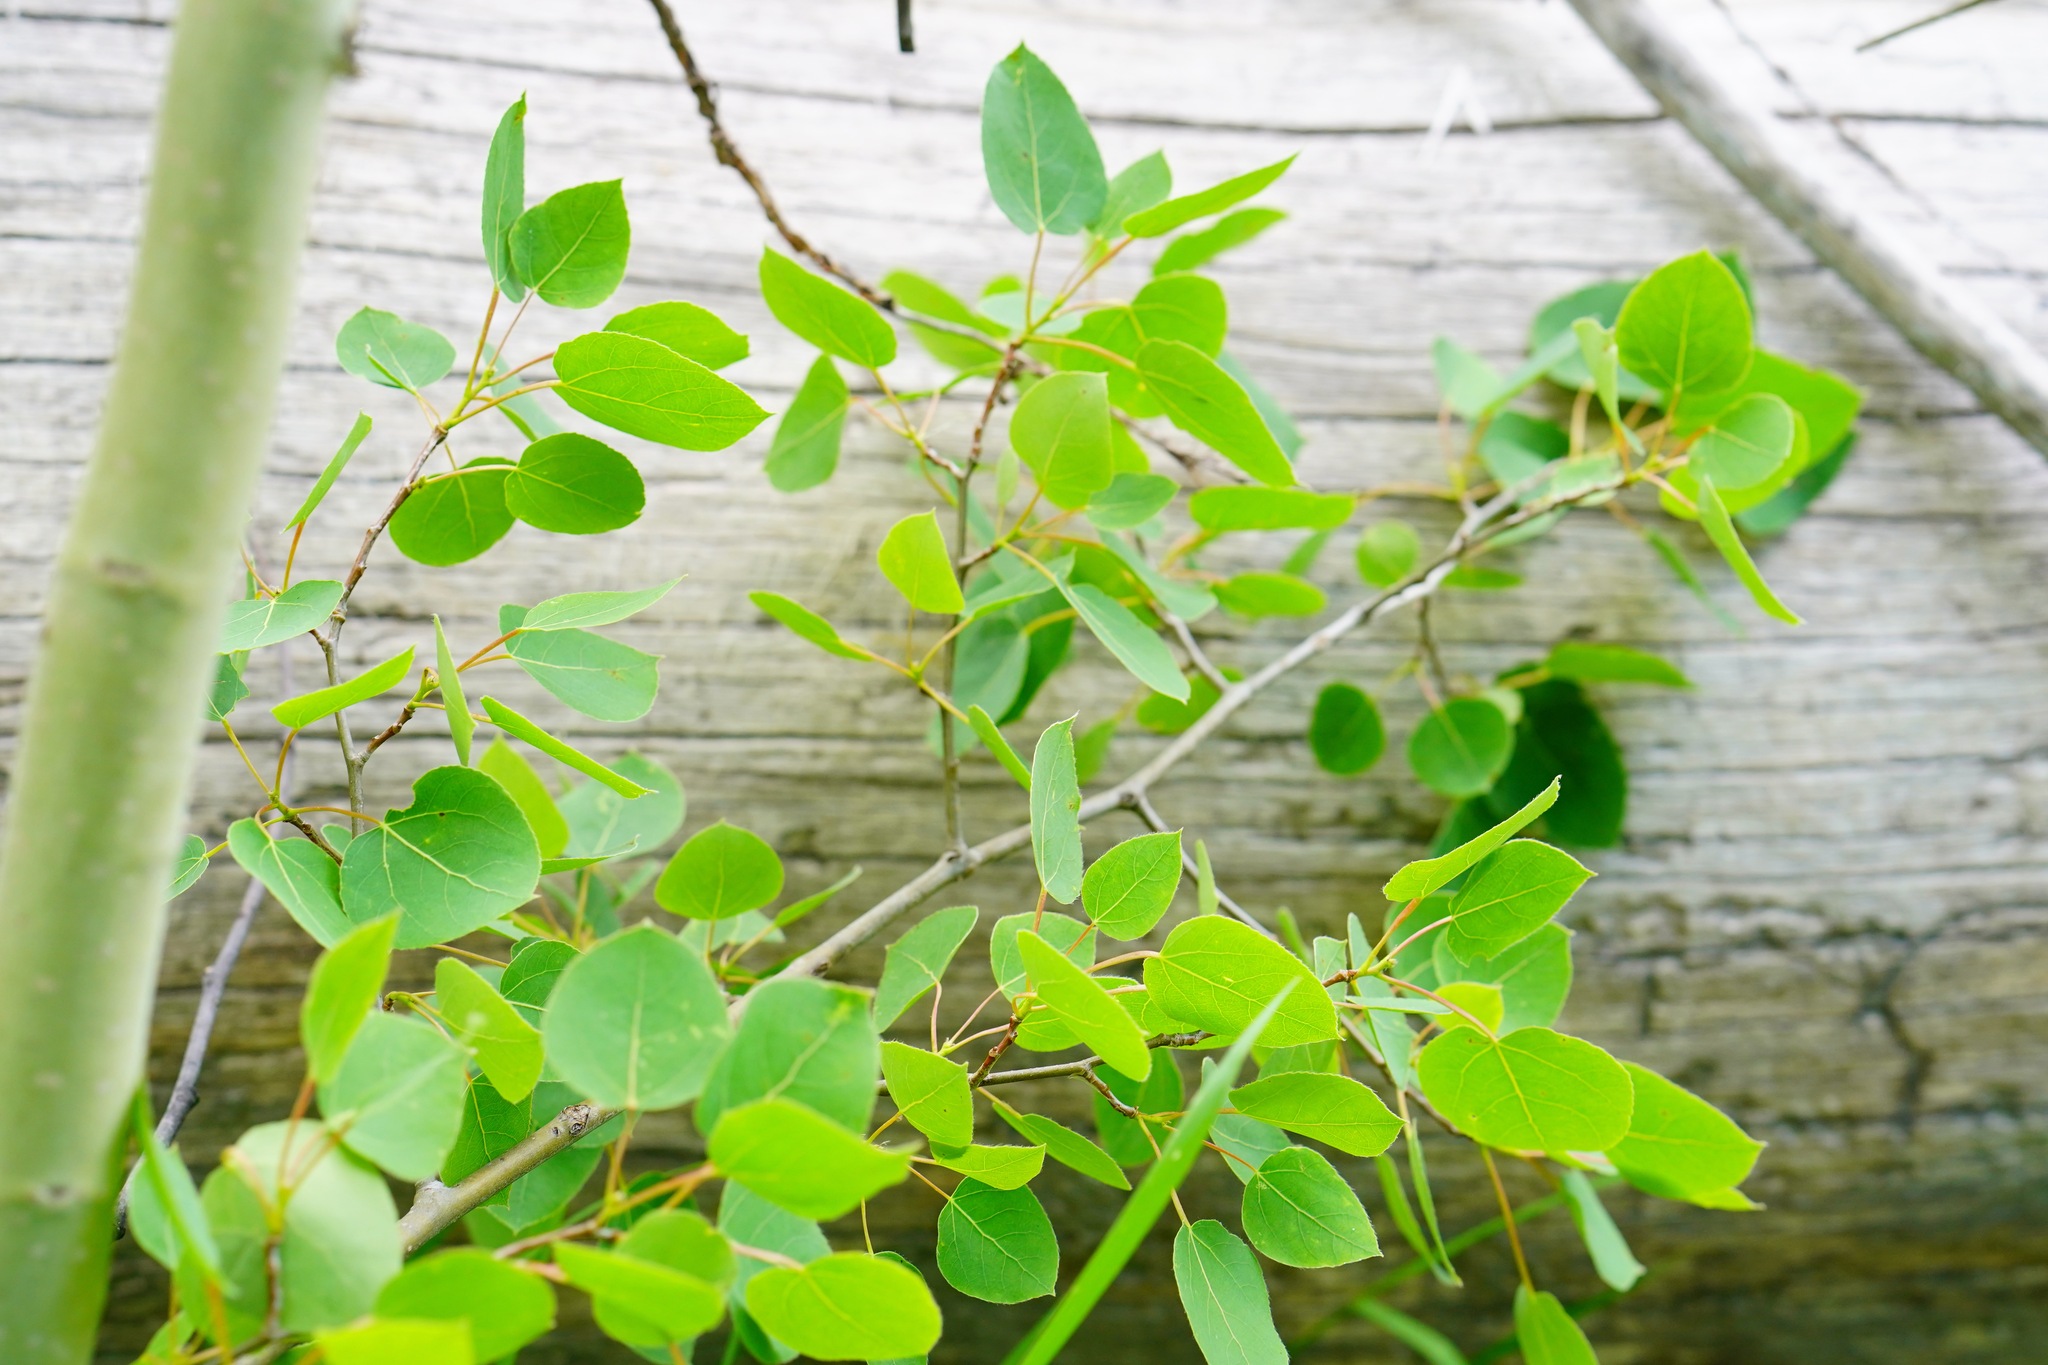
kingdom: Plantae
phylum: Tracheophyta
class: Magnoliopsida
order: Malpighiales
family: Salicaceae
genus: Populus
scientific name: Populus tremuloides
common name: Quaking aspen
